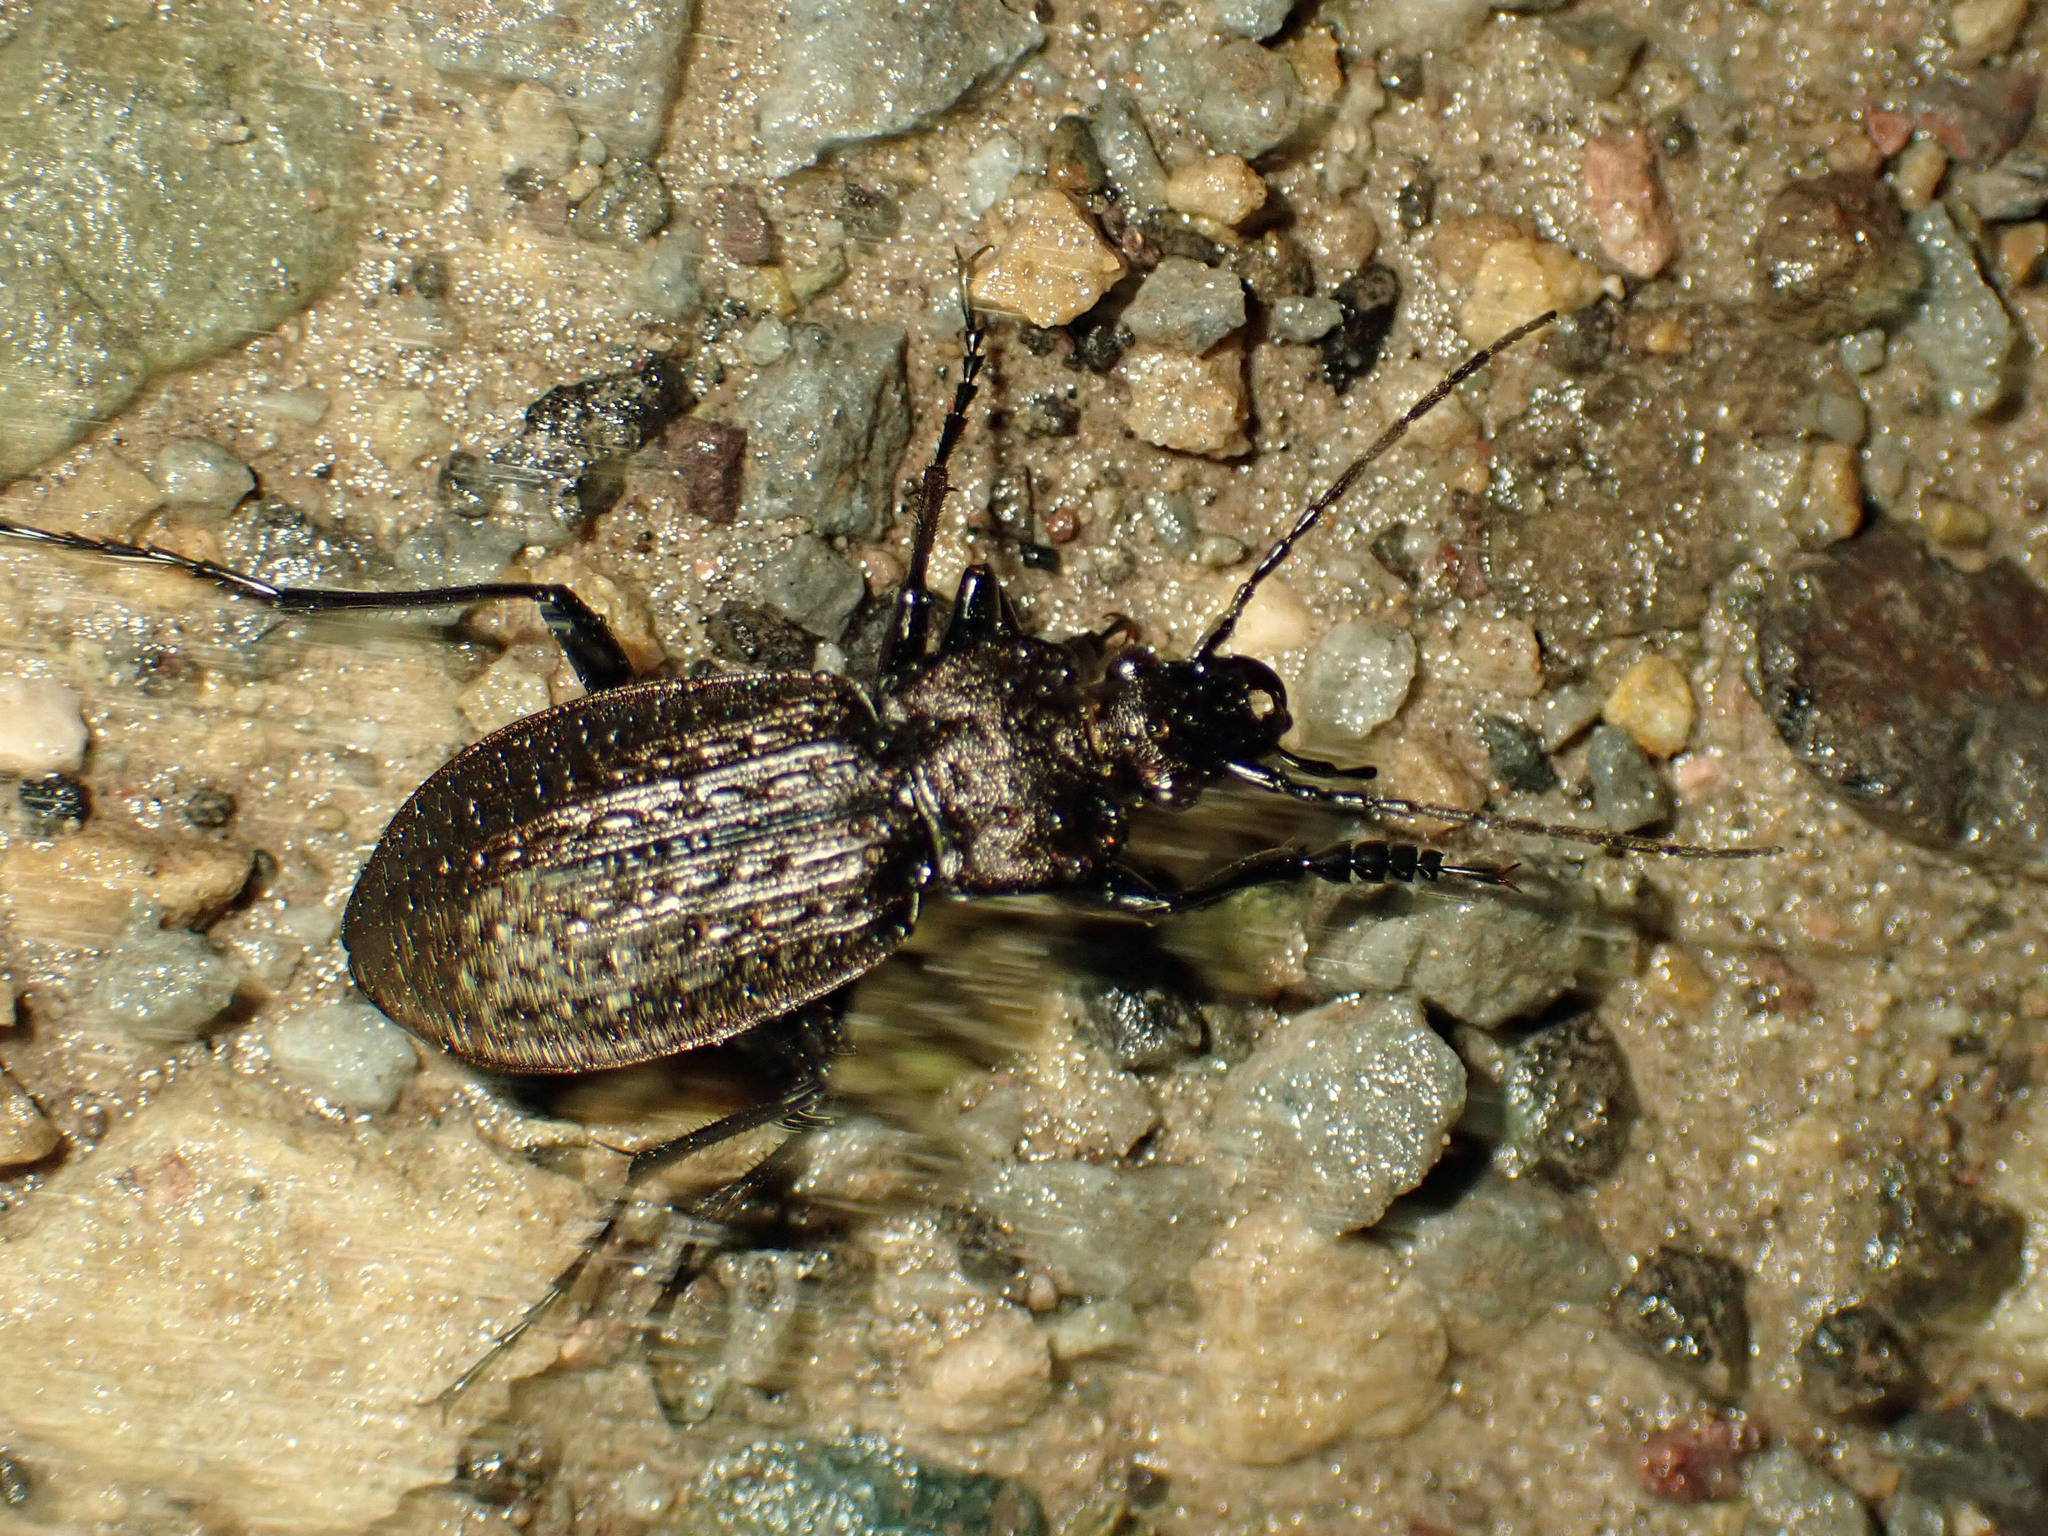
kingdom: Animalia
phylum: Arthropoda
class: Insecta
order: Coleoptera
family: Carabidae
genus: Carabus
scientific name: Carabus granulatus
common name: Granulate ground beetle
